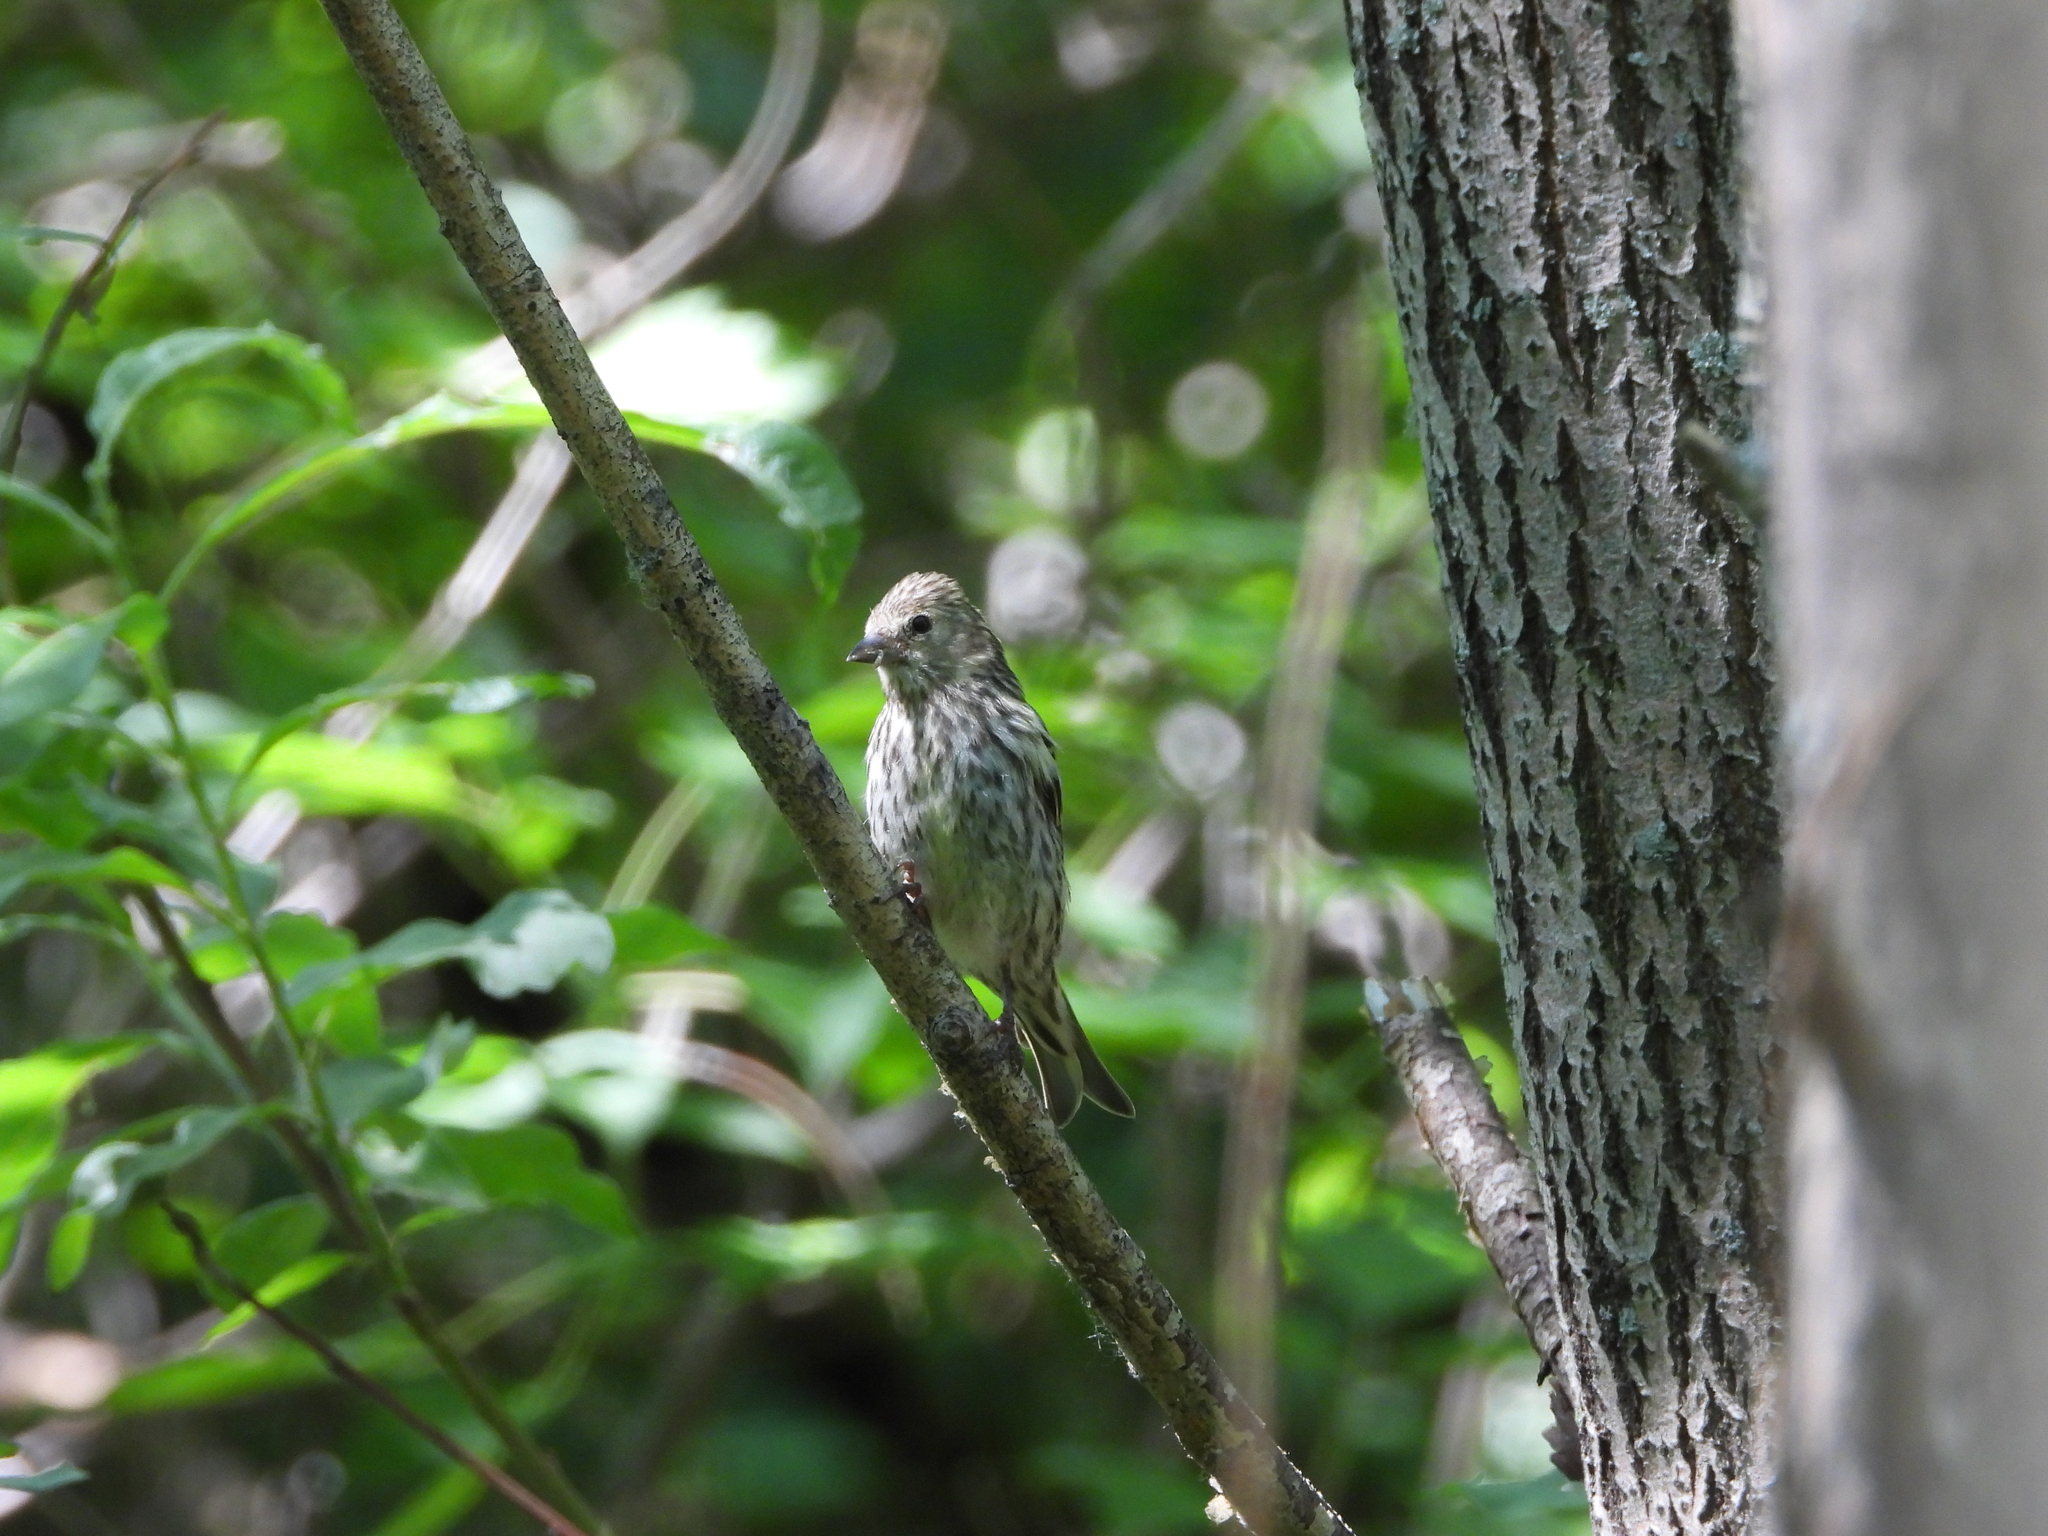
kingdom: Animalia
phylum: Chordata
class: Aves
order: Passeriformes
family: Fringillidae
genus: Spinus
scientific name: Spinus spinus
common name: Eurasian siskin
